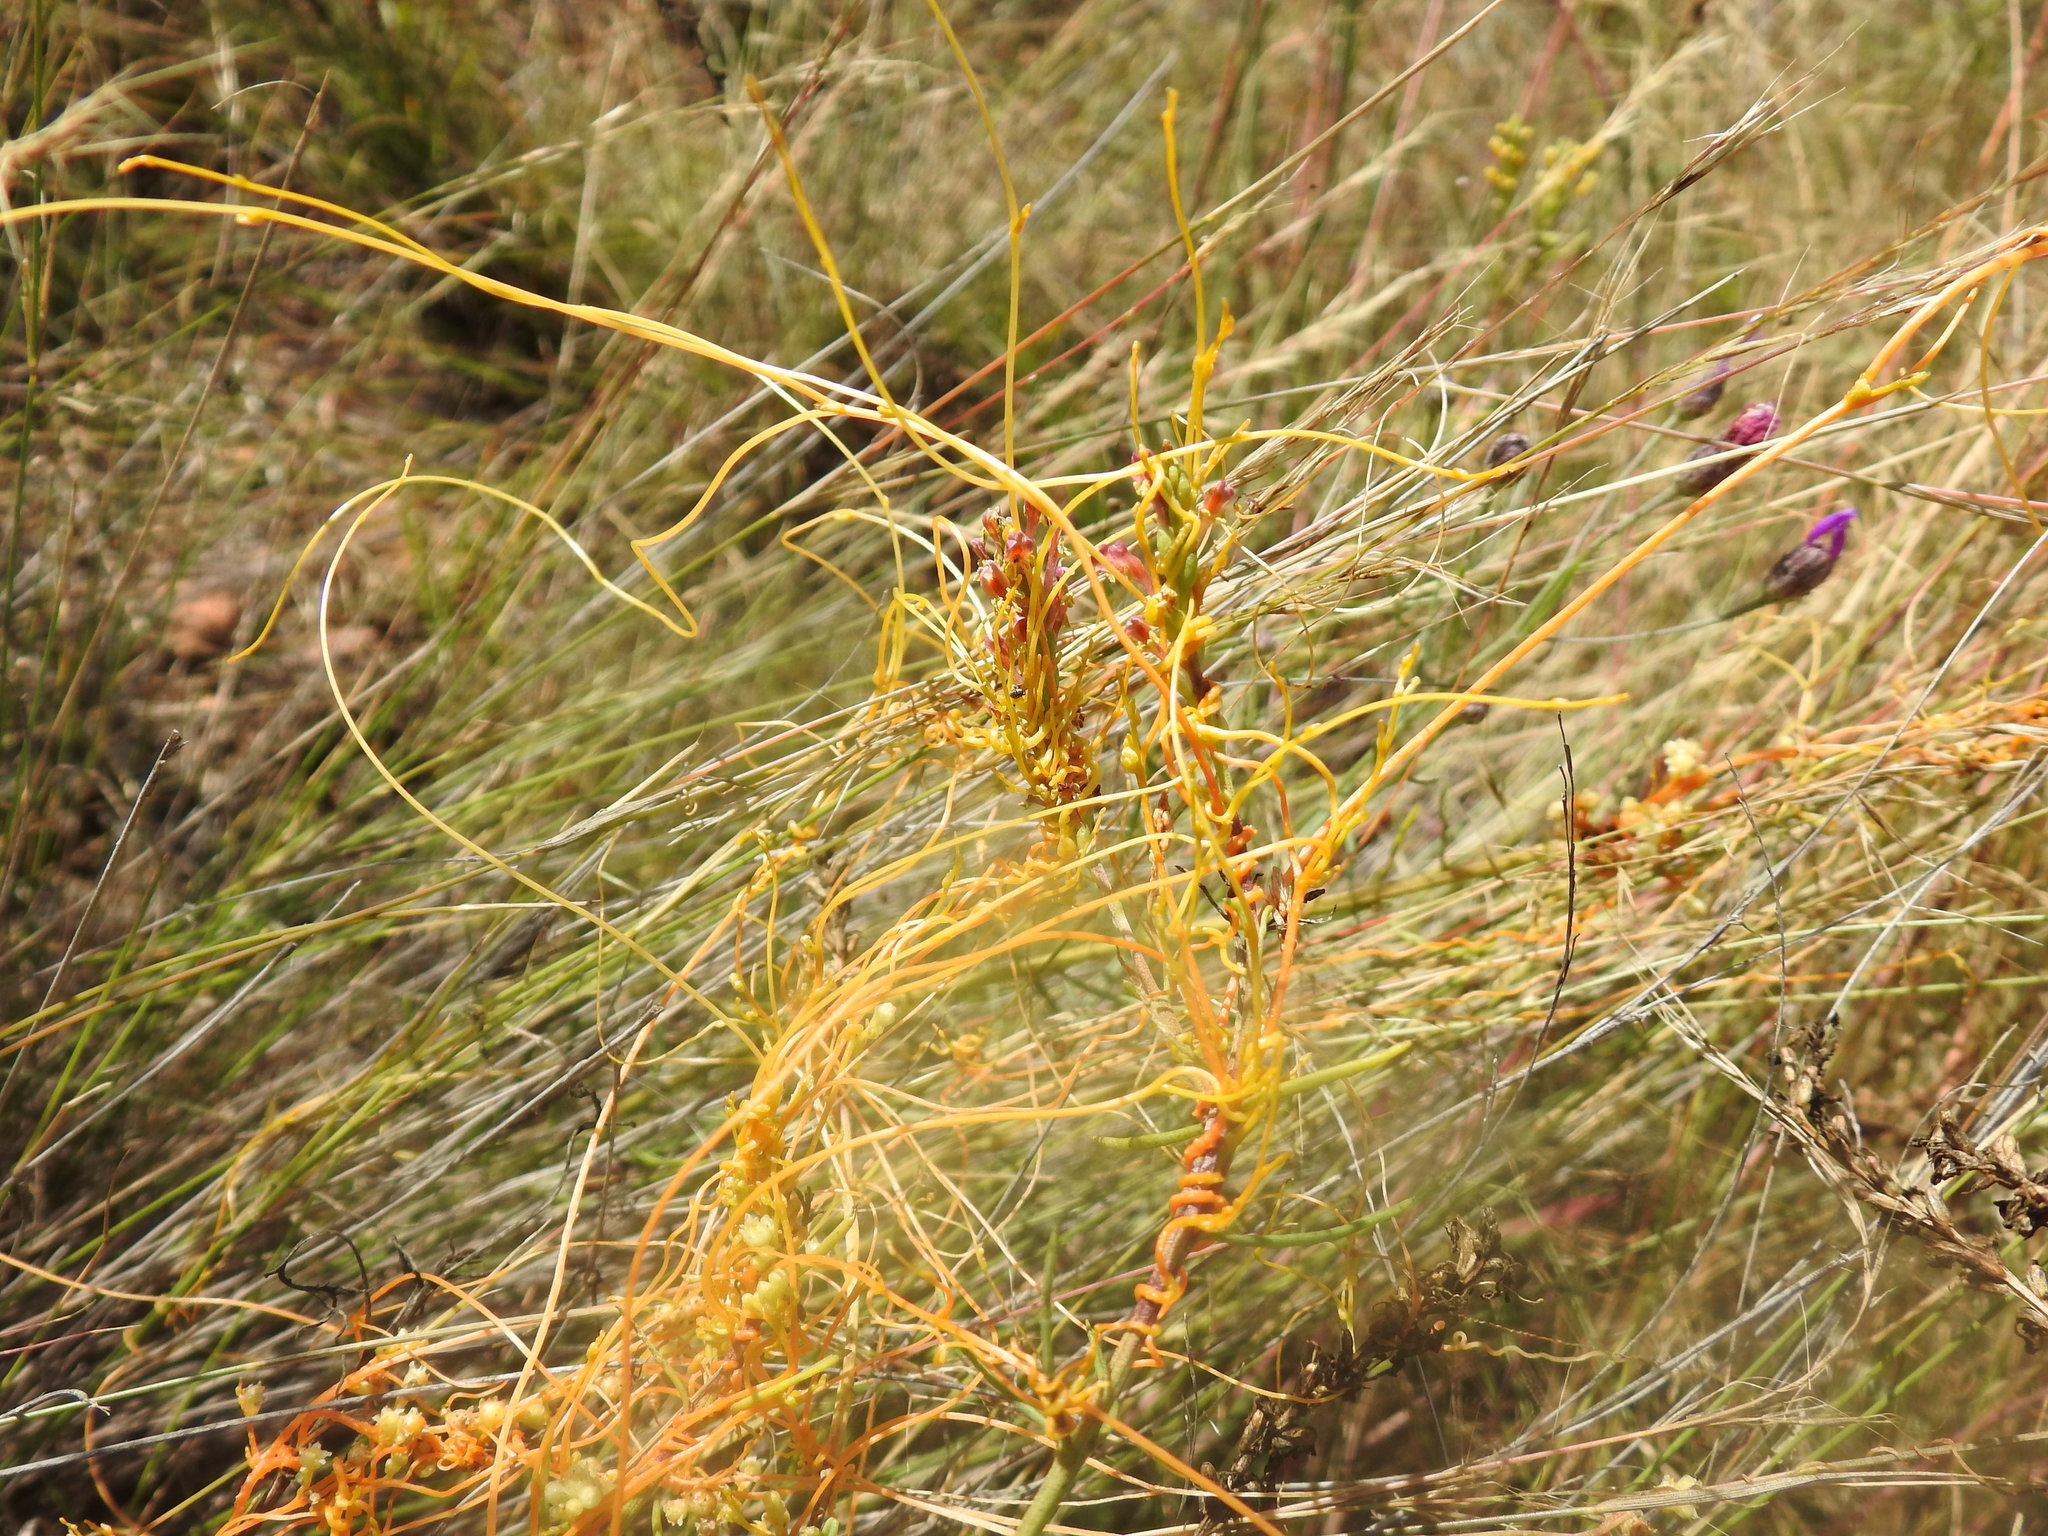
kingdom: Plantae
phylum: Tracheophyta
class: Magnoliopsida
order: Solanales
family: Convolvulaceae
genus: Cuscuta
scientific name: Cuscuta campestris
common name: Yellow dodder
